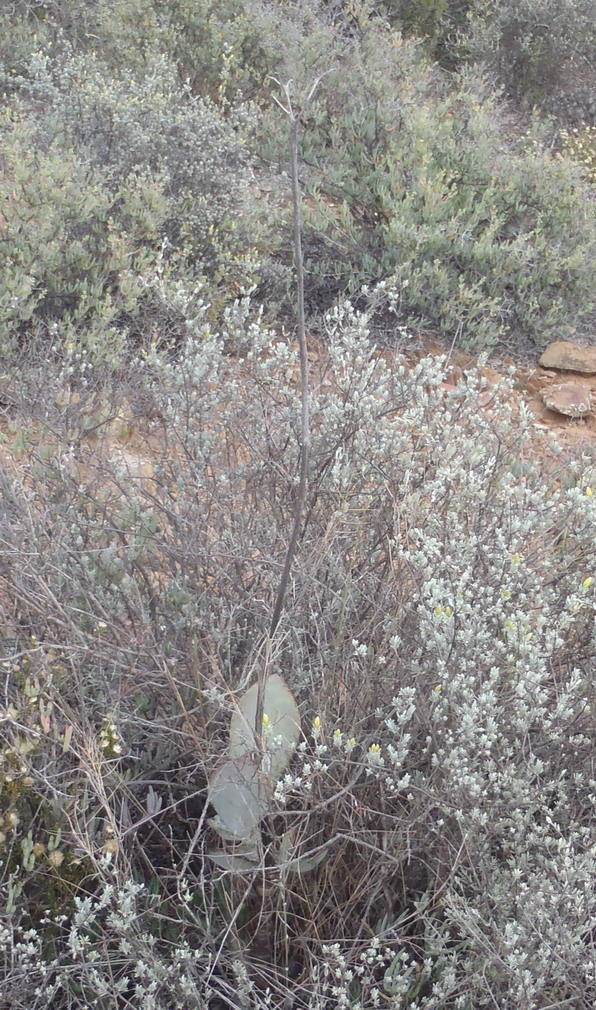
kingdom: Plantae
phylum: Tracheophyta
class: Magnoliopsida
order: Saxifragales
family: Crassulaceae
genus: Cotyledon
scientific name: Cotyledon orbiculata
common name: Pig's ear
